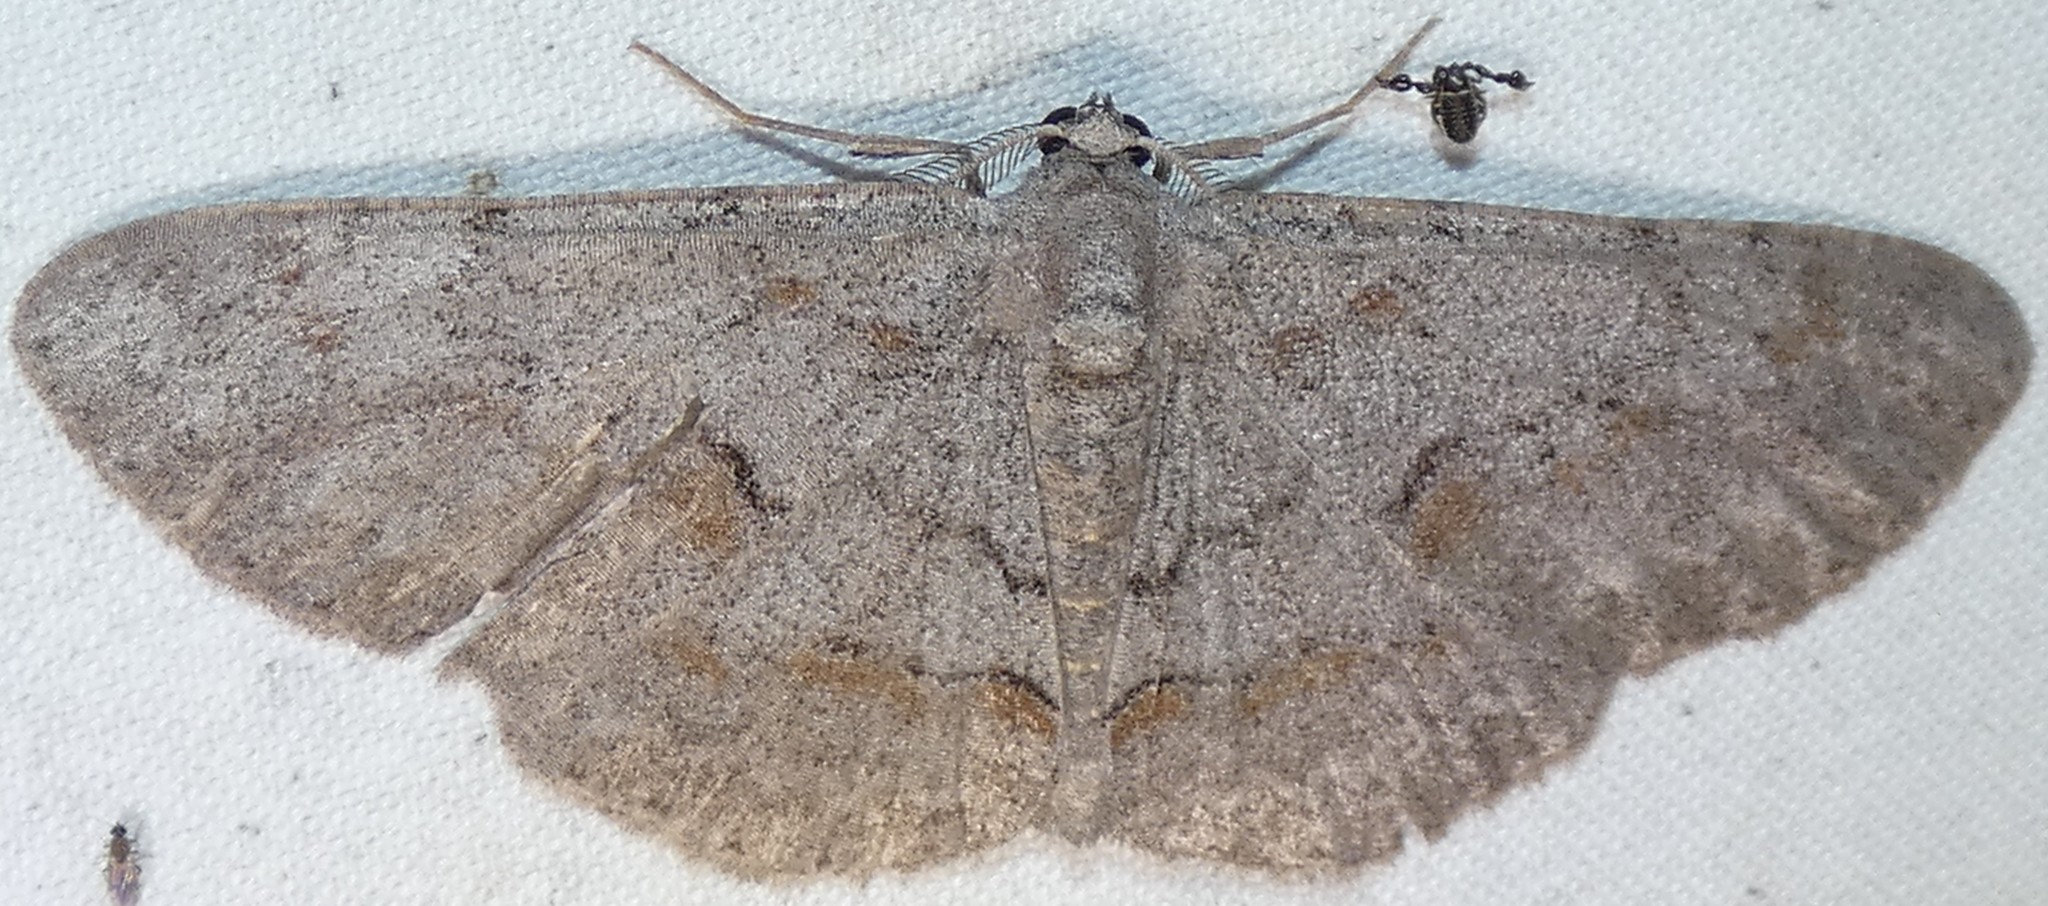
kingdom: Animalia
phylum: Arthropoda
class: Insecta
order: Lepidoptera
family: Geometridae
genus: Iridopsis
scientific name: Iridopsis vellivolata
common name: Large purplish gray
